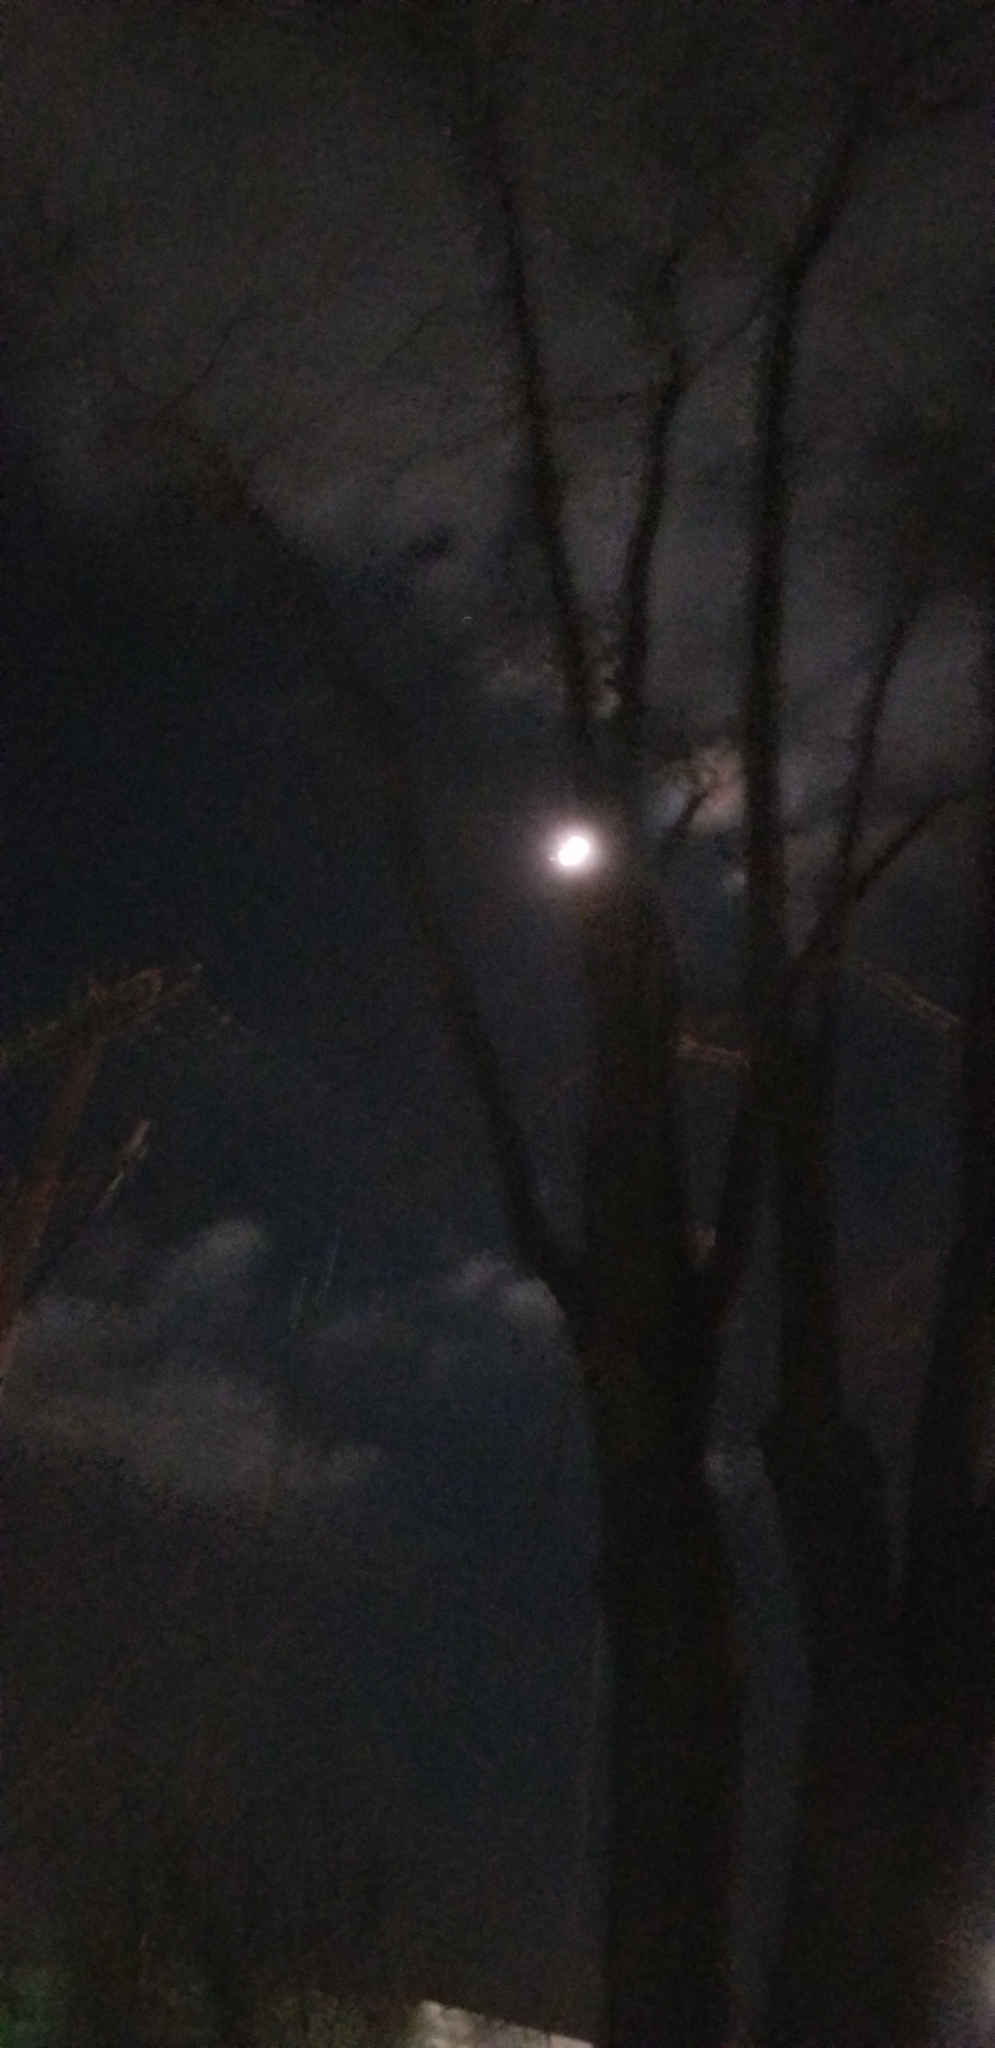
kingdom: Plantae
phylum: Tracheophyta
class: Magnoliopsida
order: Sapindales
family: Sapindaceae
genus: Acer
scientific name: Acer saccharinum
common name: Silver maple
